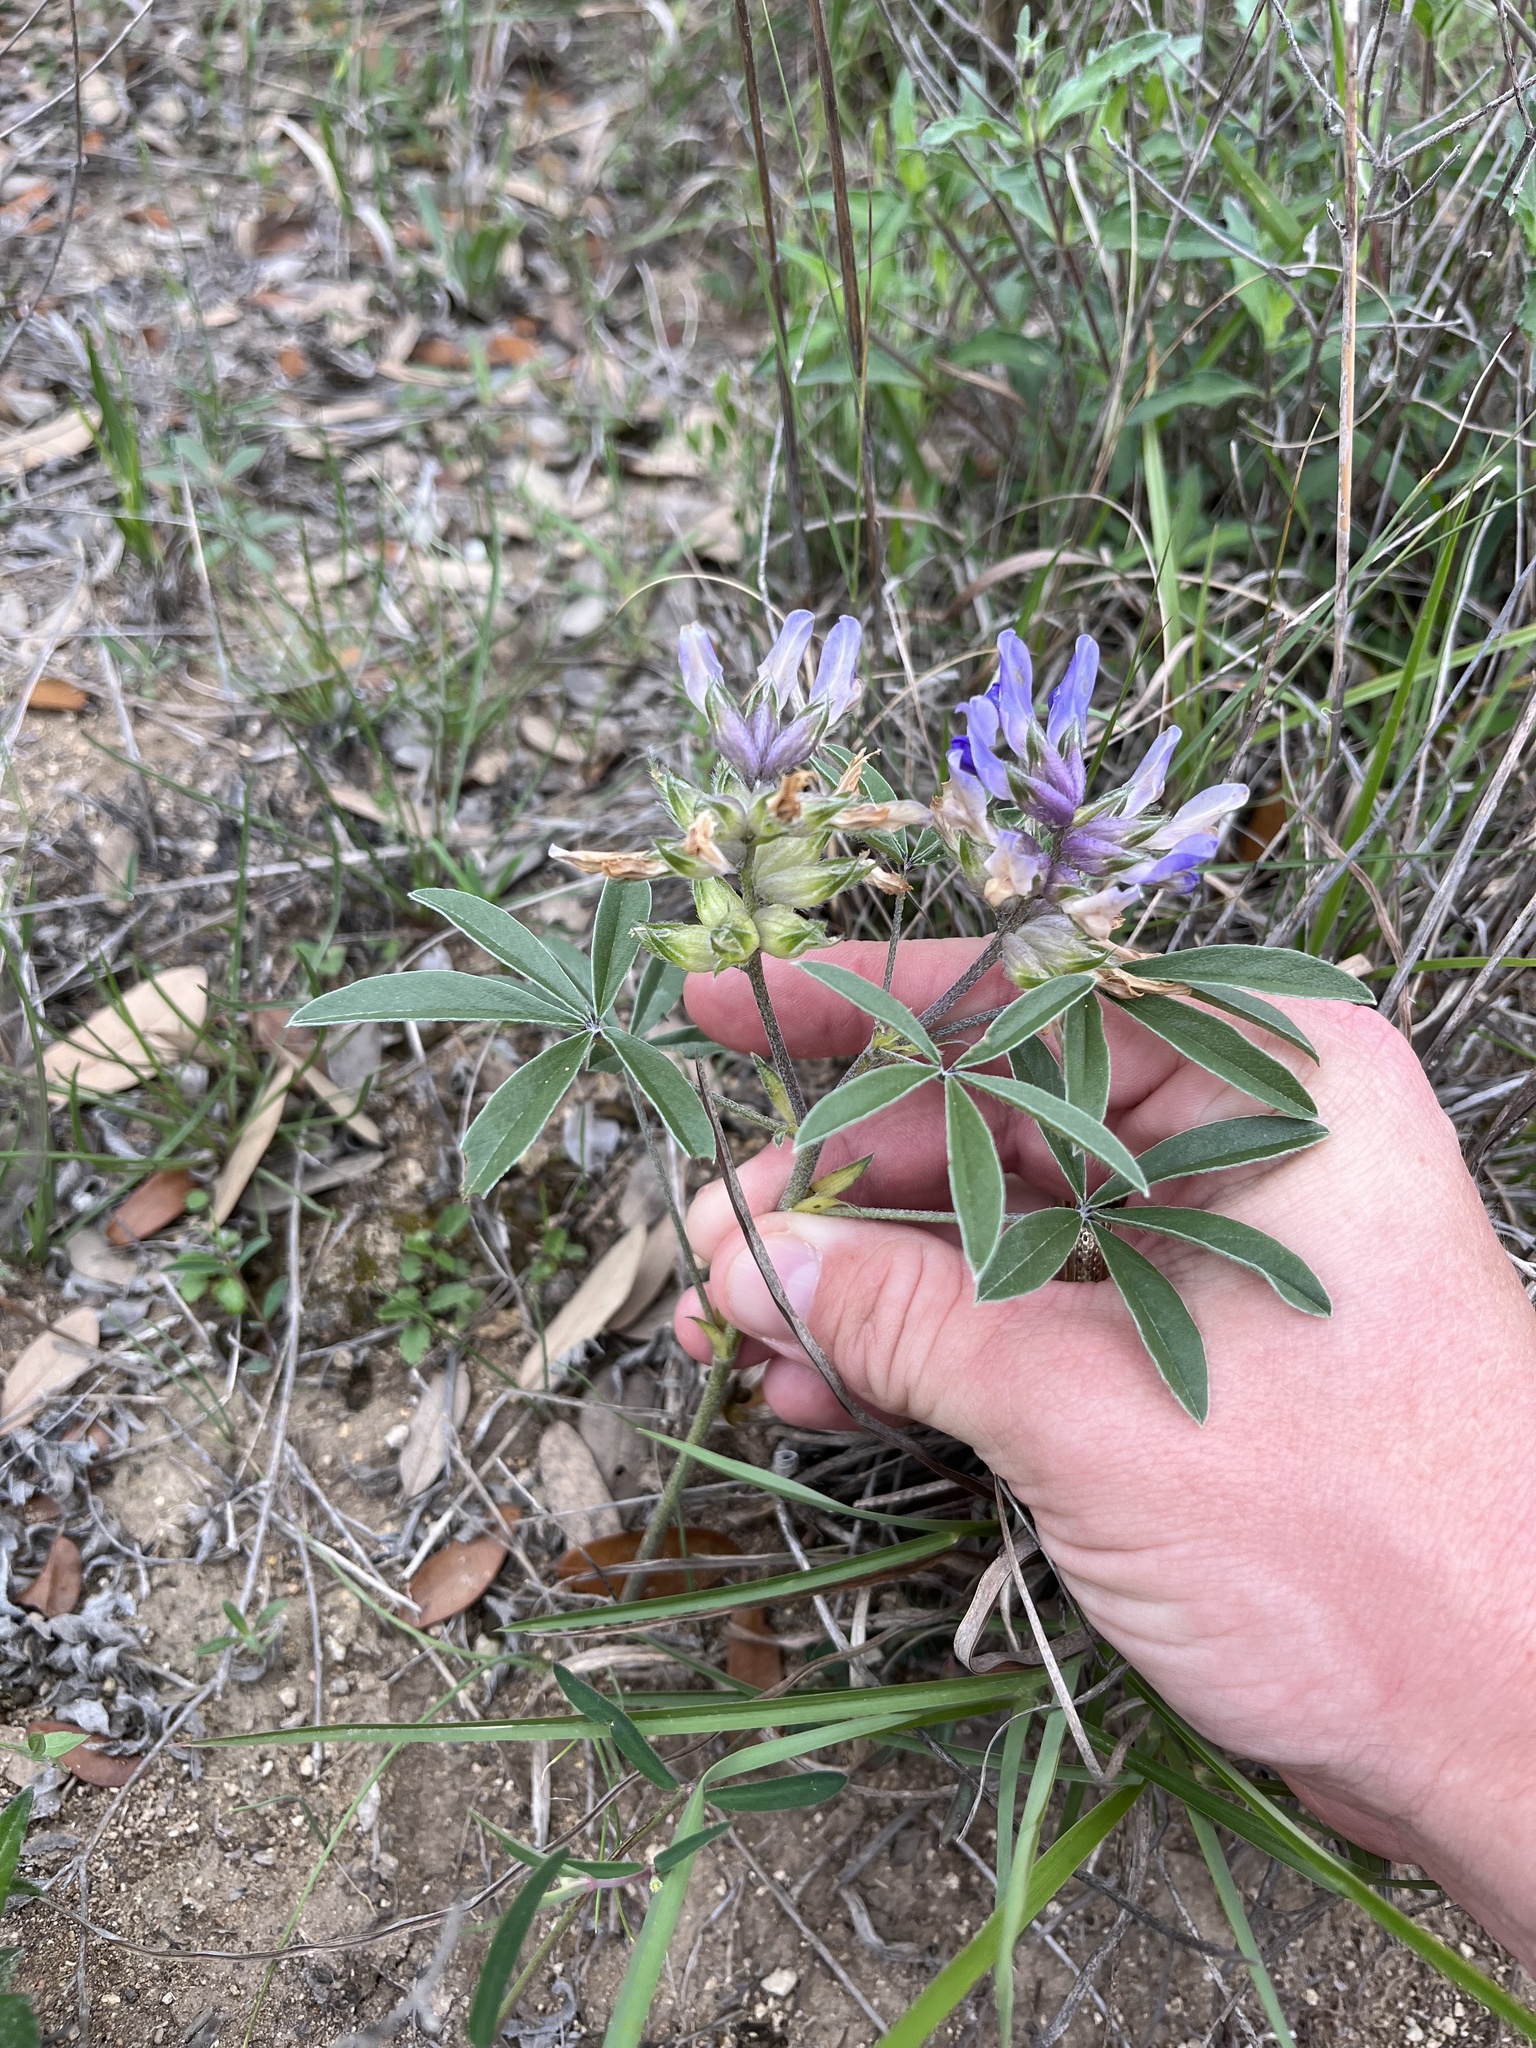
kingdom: Plantae
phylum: Tracheophyta
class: Magnoliopsida
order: Fabales
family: Fabaceae
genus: Pediomelum
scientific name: Pediomelum latestipulatum
